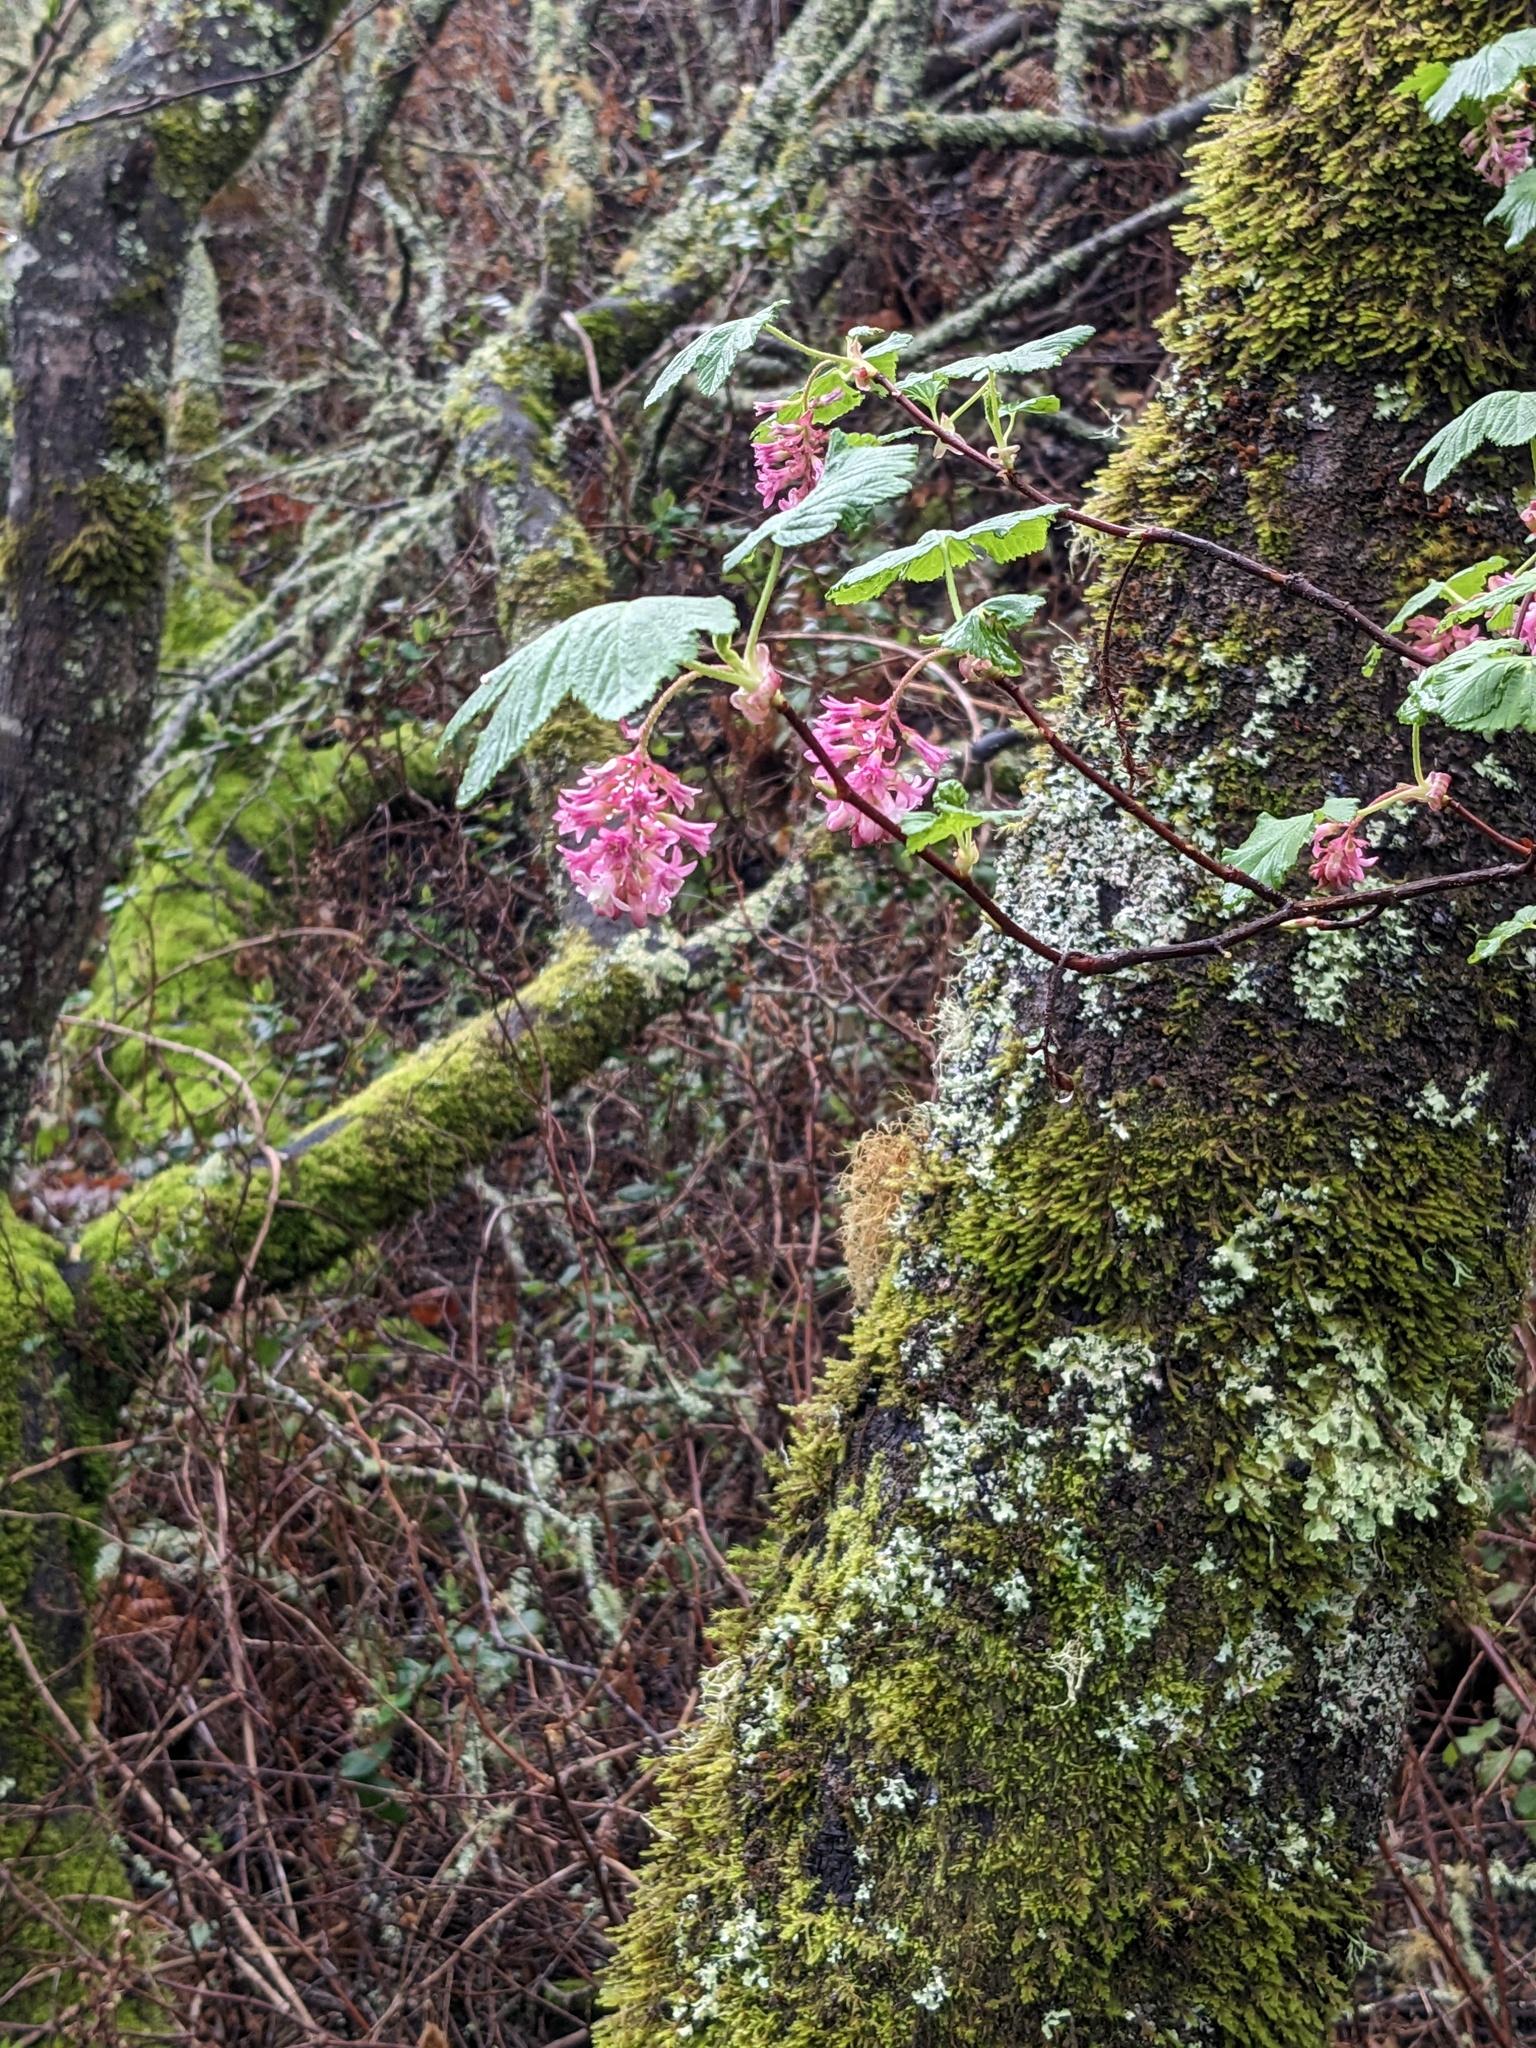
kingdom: Plantae
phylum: Tracheophyta
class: Magnoliopsida
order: Saxifragales
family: Grossulariaceae
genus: Ribes
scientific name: Ribes sanguineum
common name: Flowering currant
